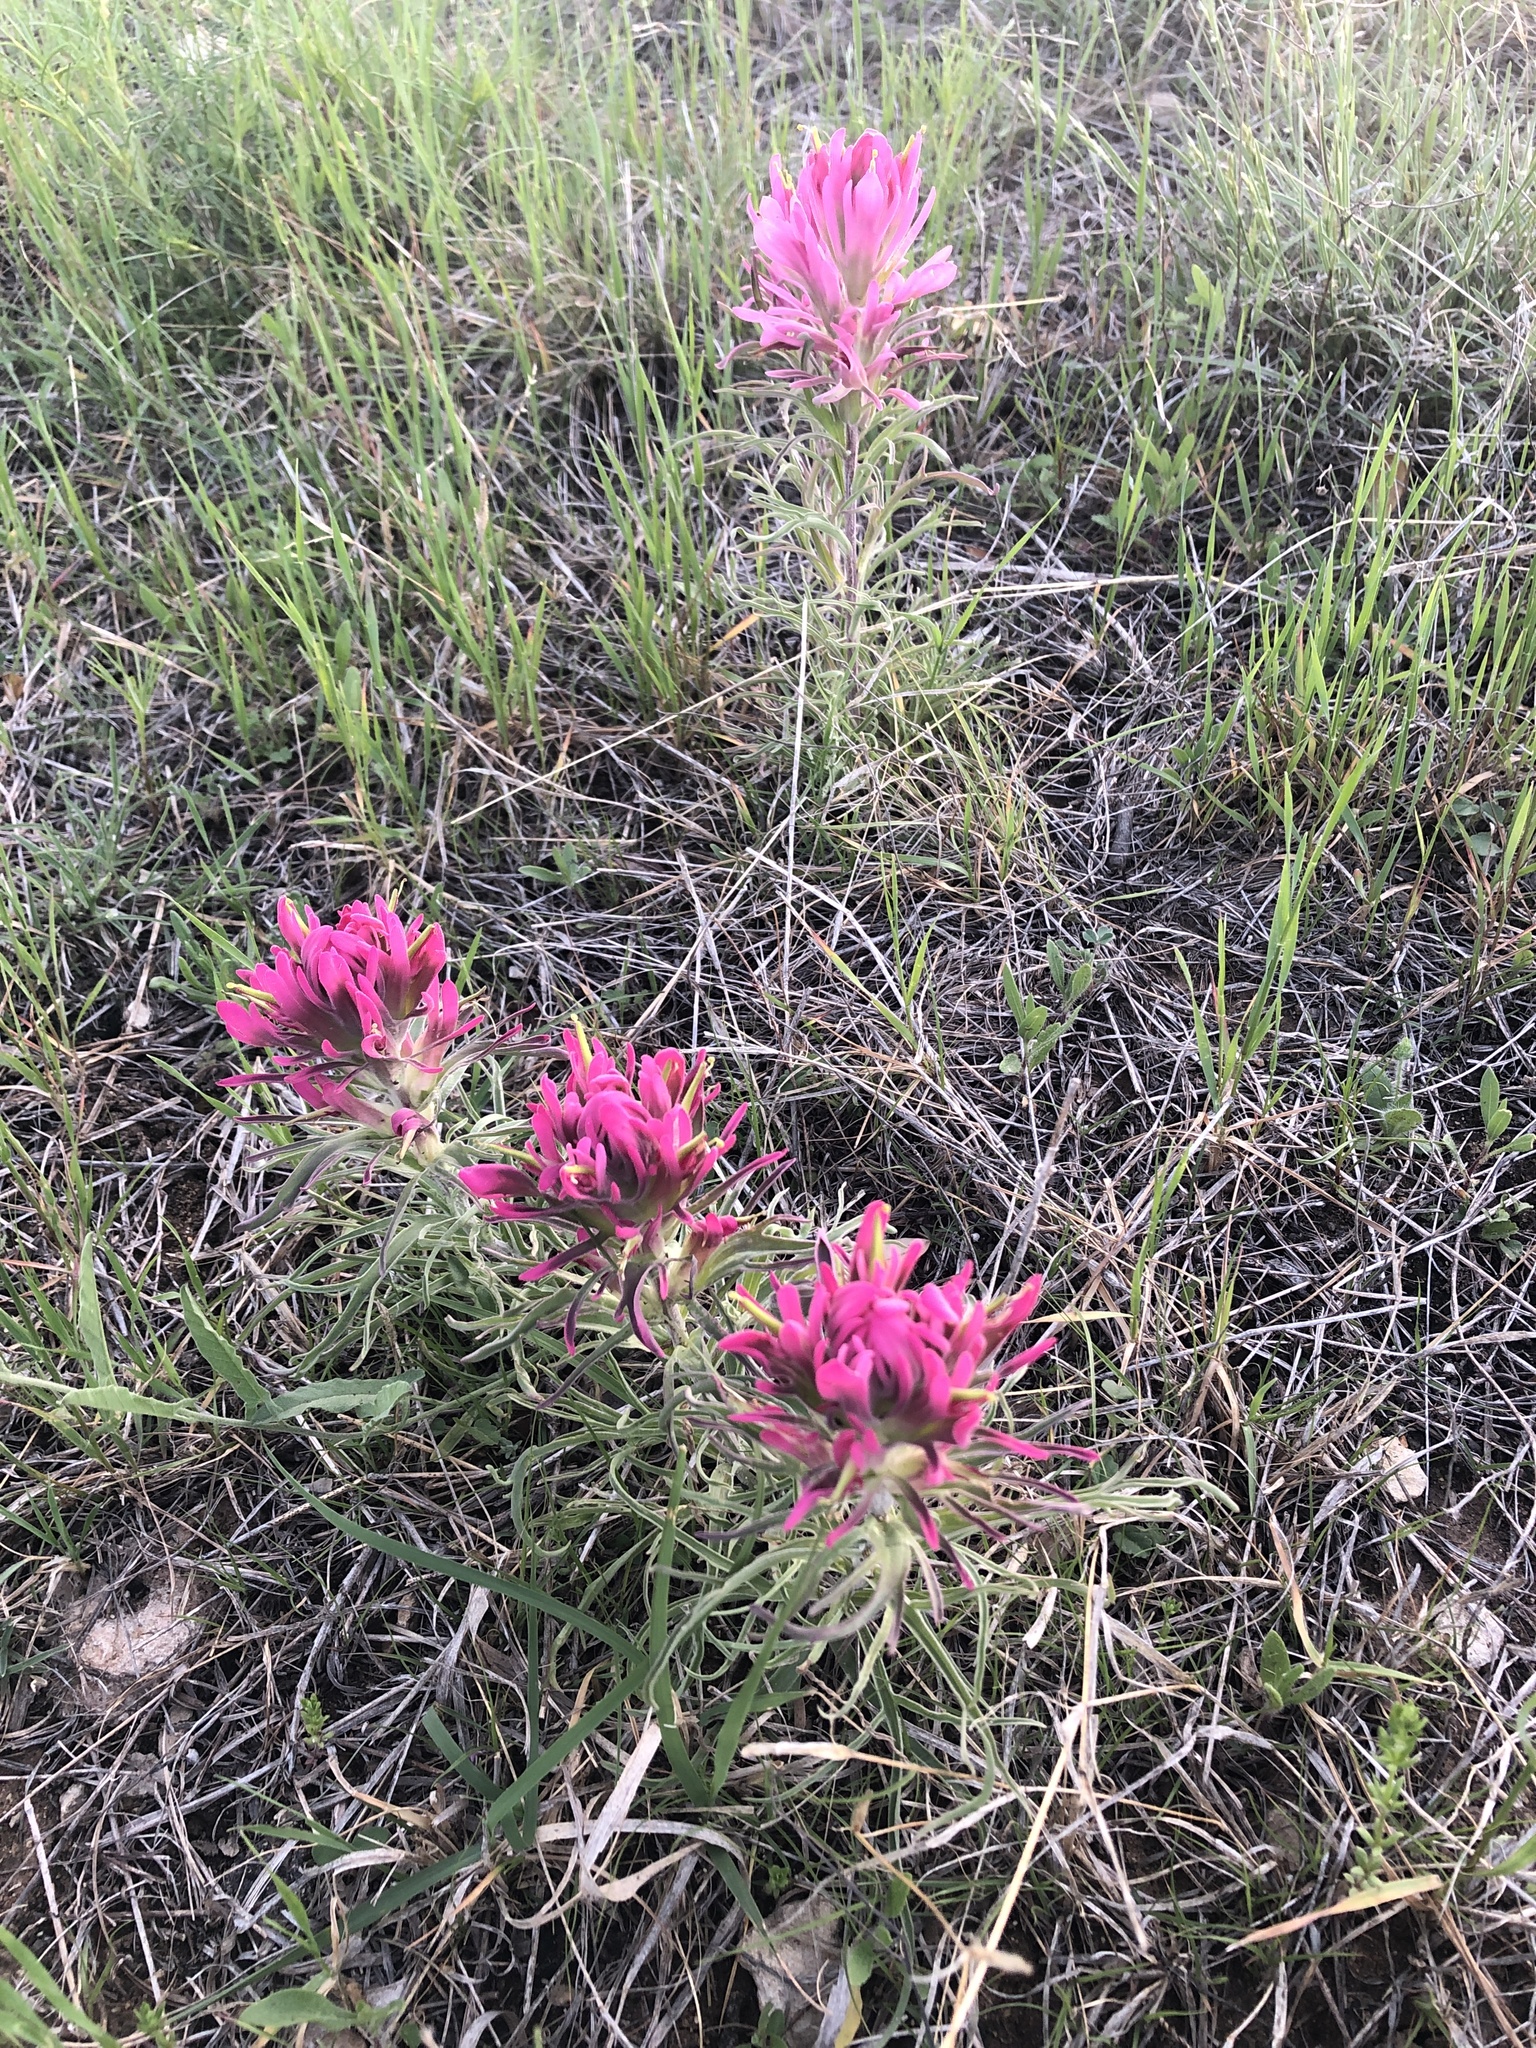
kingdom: Plantae
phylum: Tracheophyta
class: Magnoliopsida
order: Lamiales
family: Orobanchaceae
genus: Castilleja
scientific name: Castilleja purpurea
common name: Plains paintbrush
